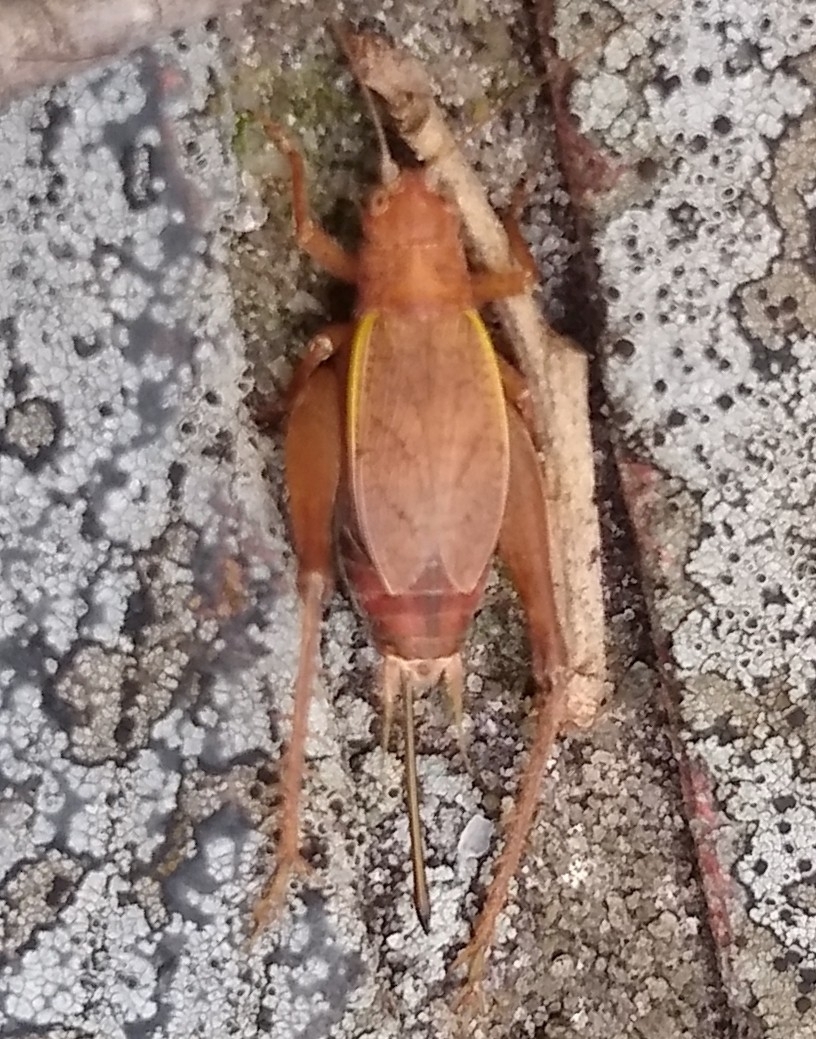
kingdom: Animalia
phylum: Arthropoda
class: Insecta
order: Orthoptera
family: Gryllidae
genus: Hapithus
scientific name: Hapithus agitator
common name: Restless bush cricket
